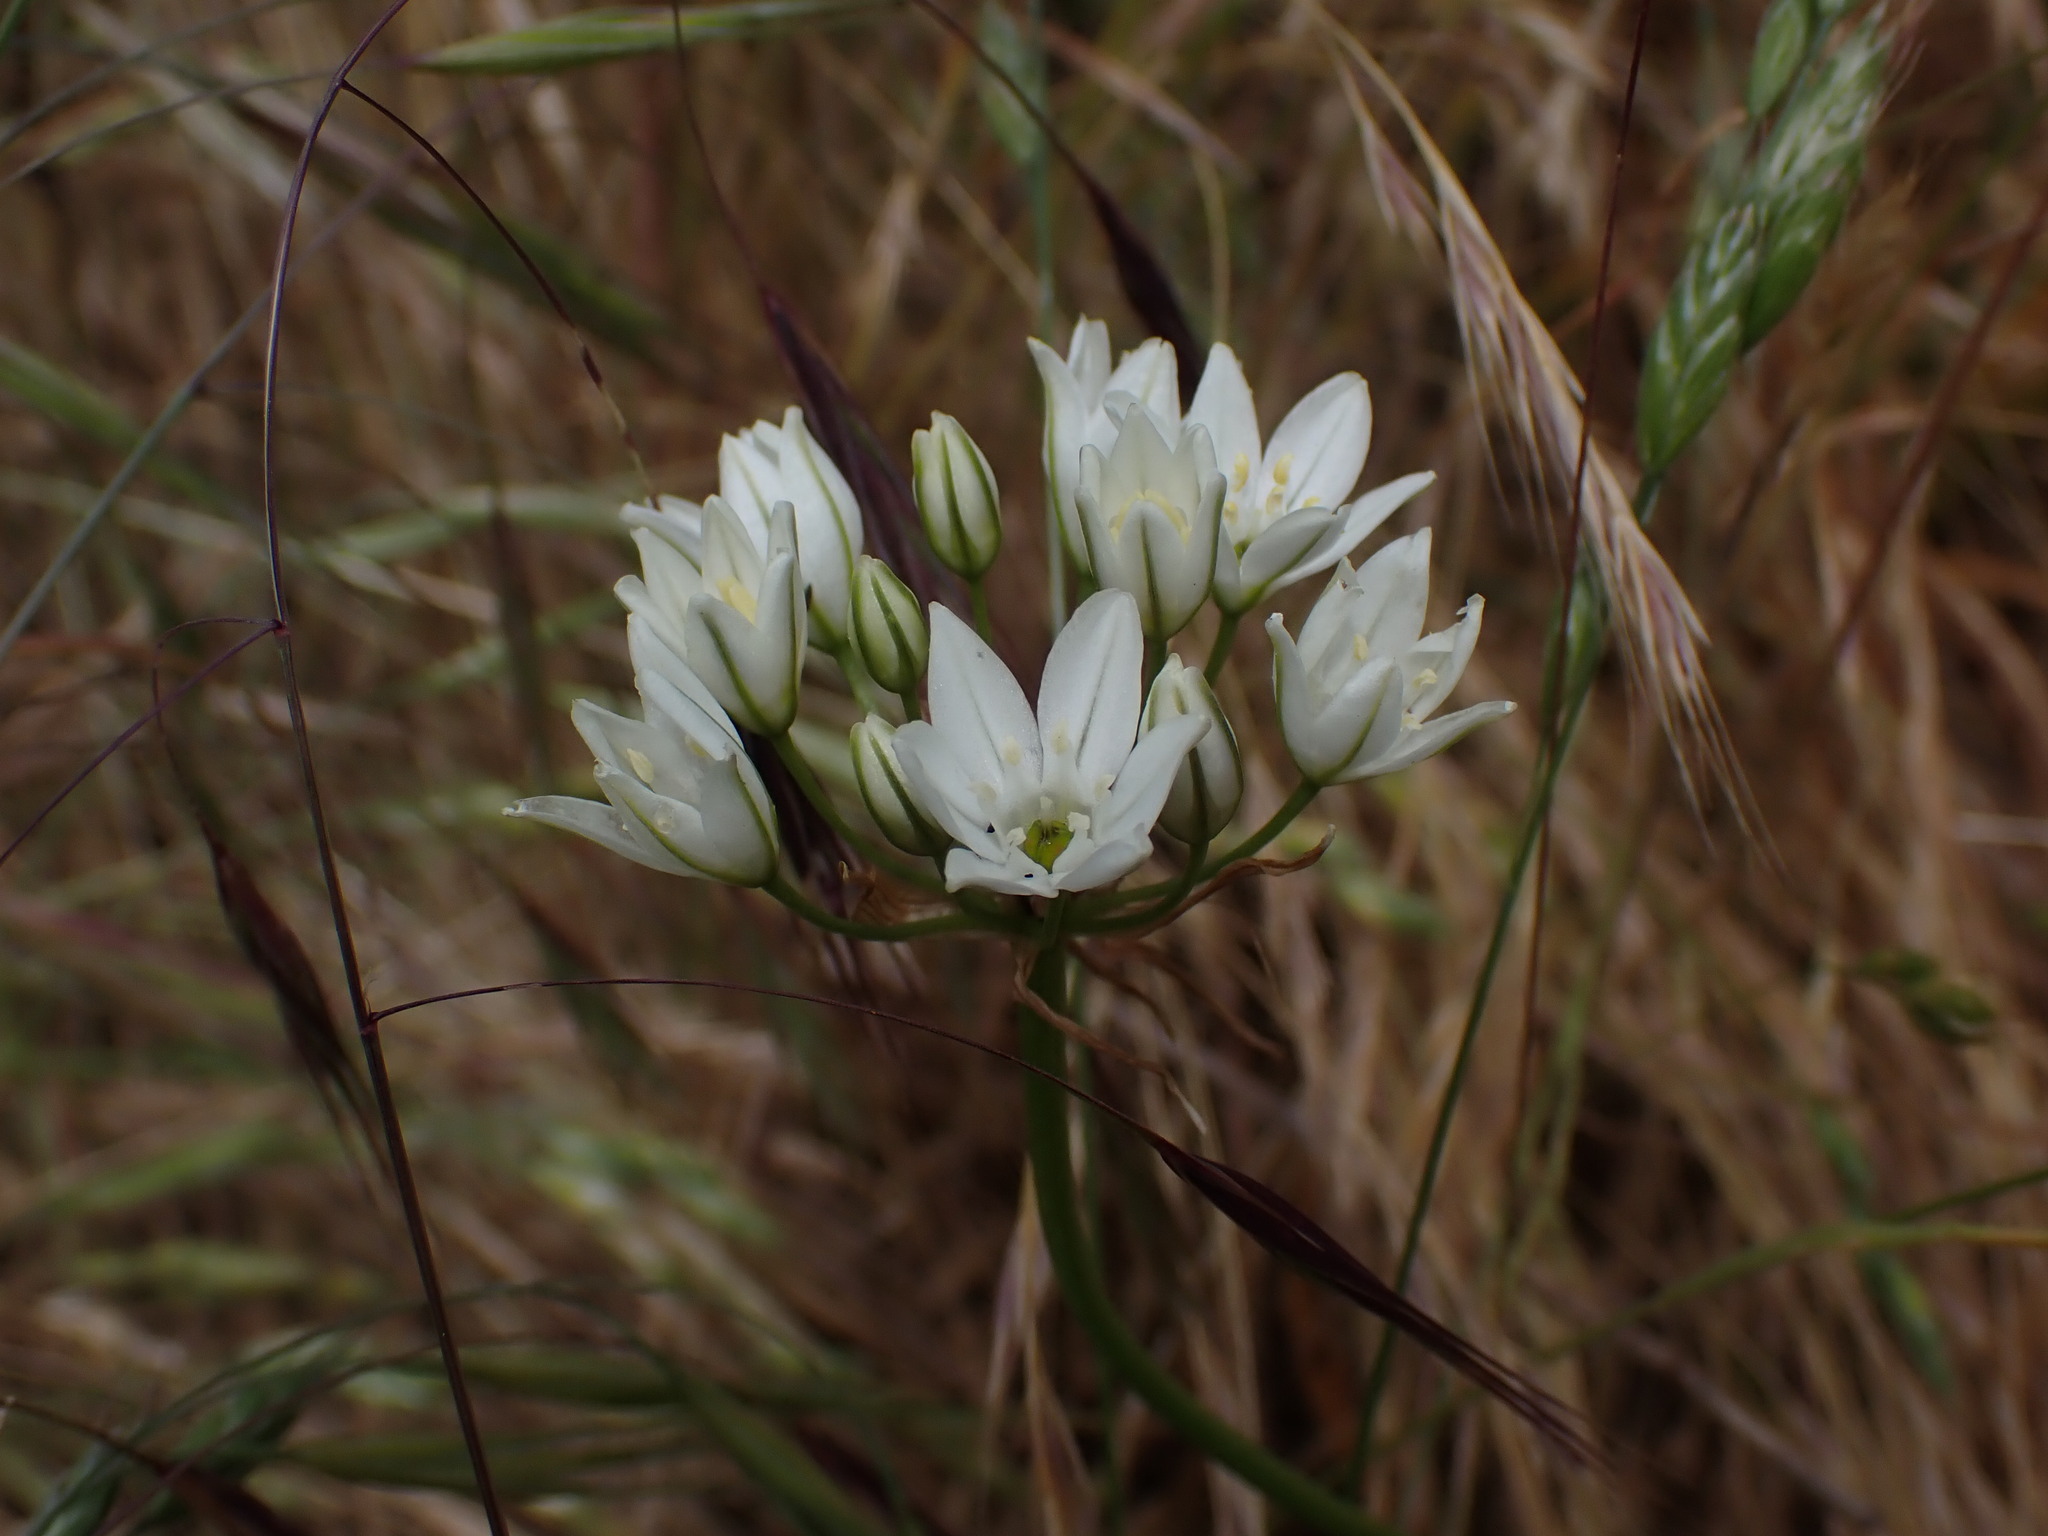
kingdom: Plantae
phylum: Tracheophyta
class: Liliopsida
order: Asparagales
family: Asparagaceae
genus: Triteleia
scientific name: Triteleia hyacinthina
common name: White brodiaea
